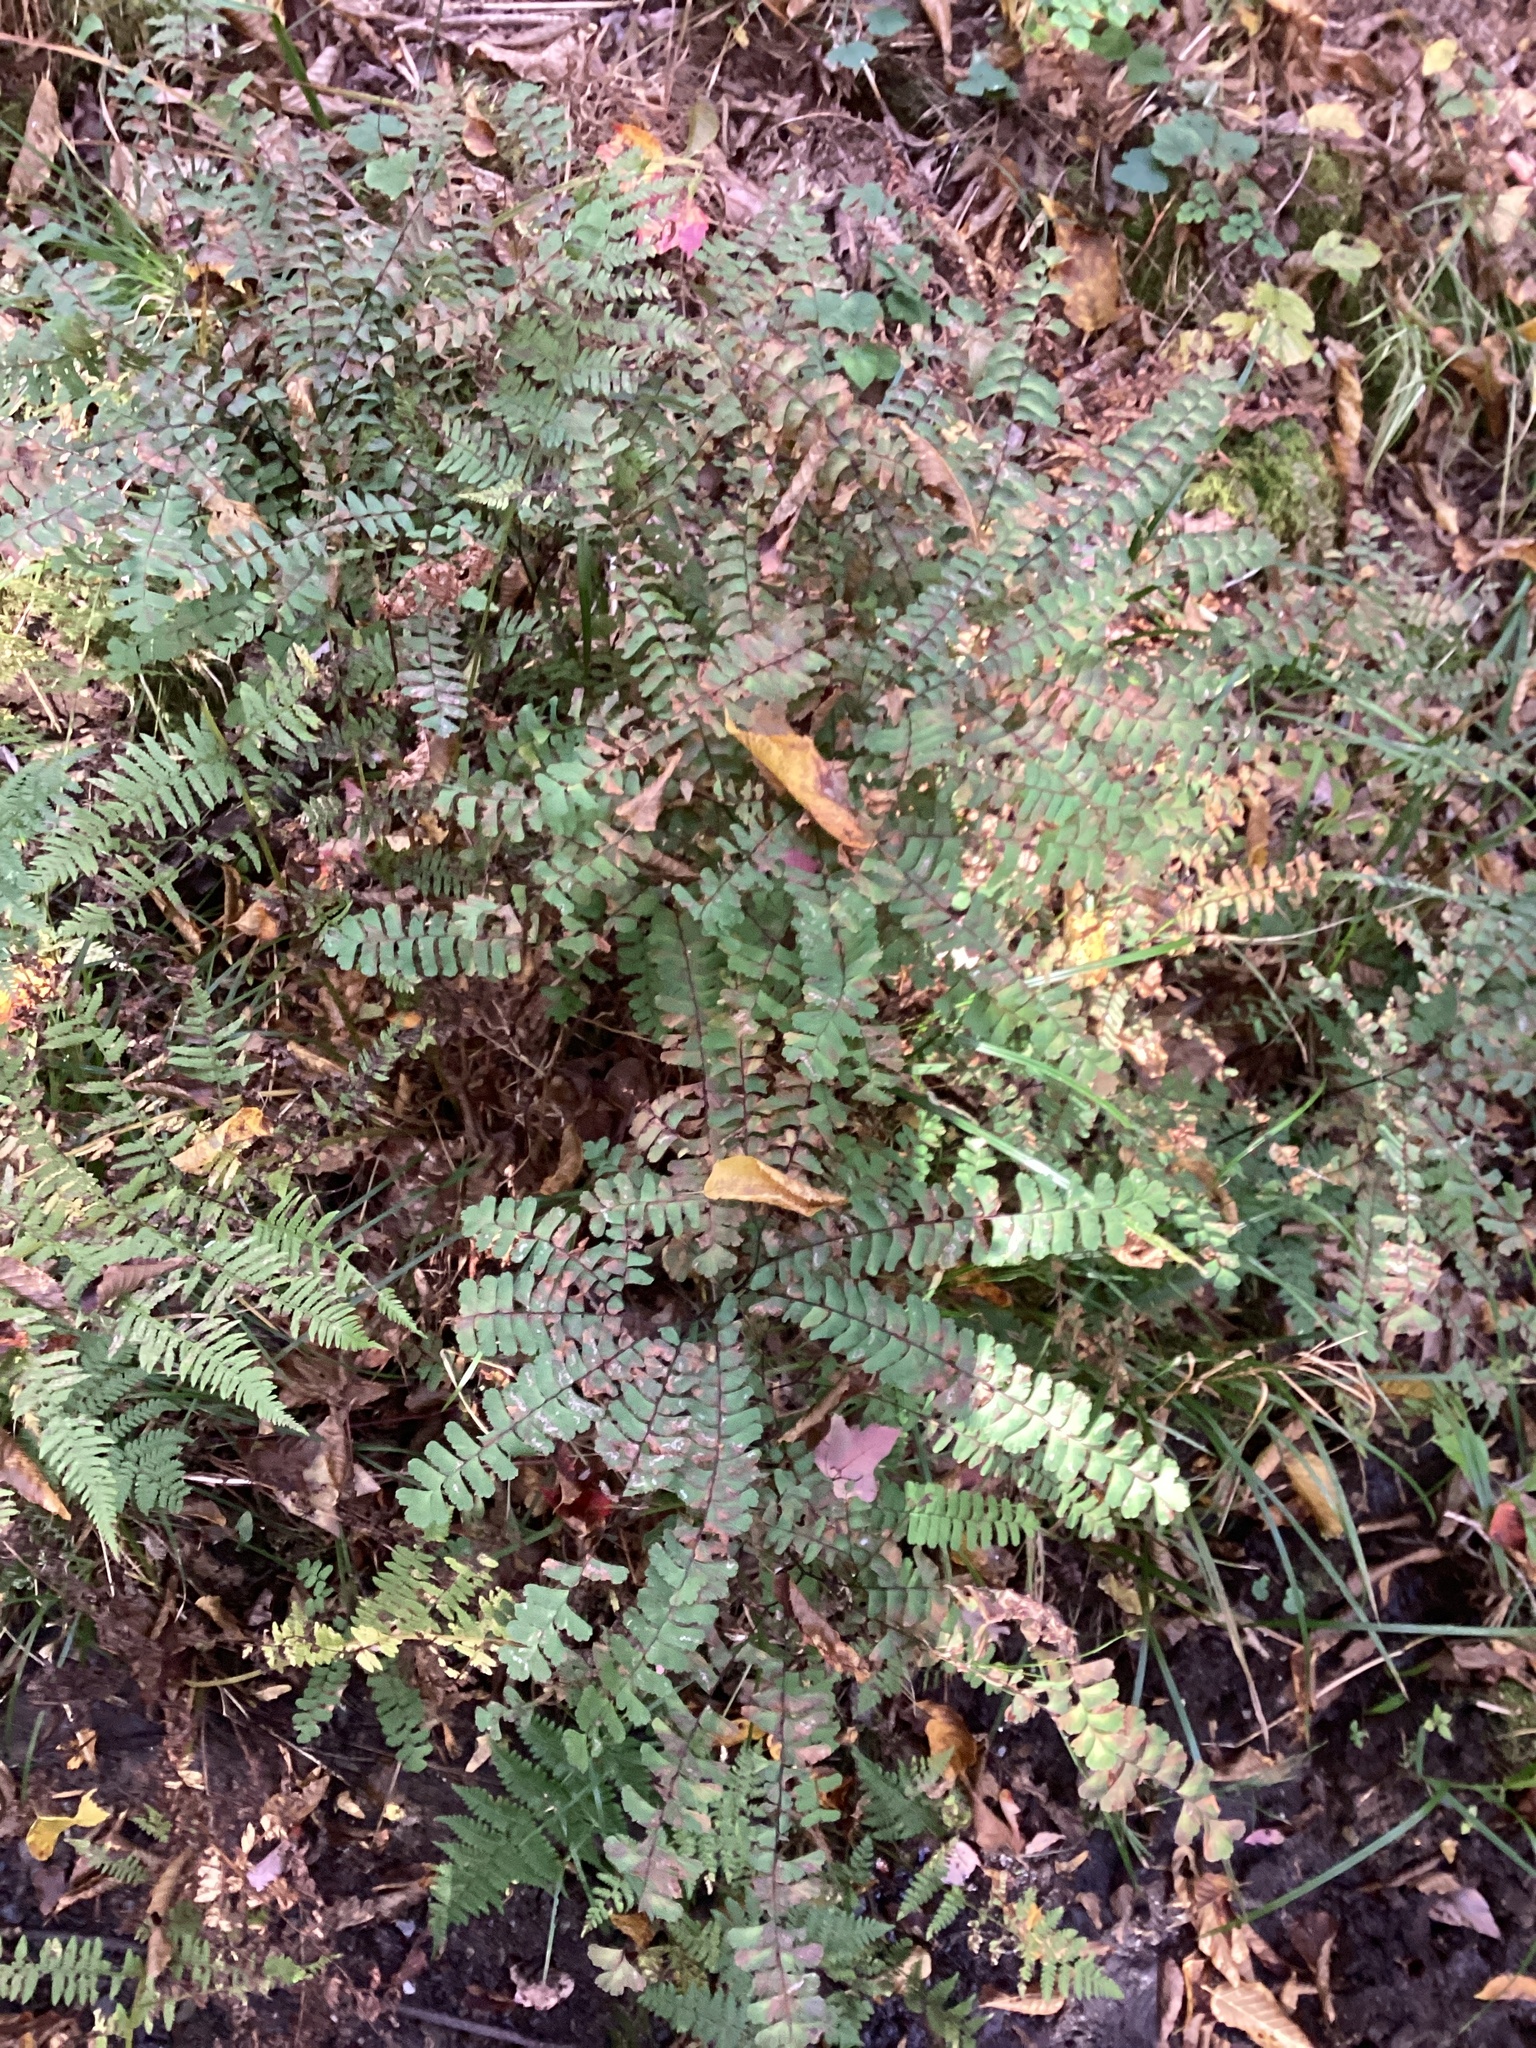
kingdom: Plantae
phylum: Tracheophyta
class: Polypodiopsida
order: Polypodiales
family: Pteridaceae
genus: Adiantum
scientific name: Adiantum pedatum
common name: Five-finger fern
